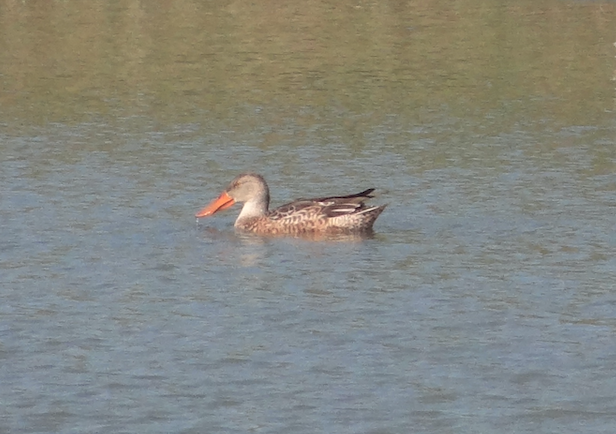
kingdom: Animalia
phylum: Chordata
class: Aves
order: Anseriformes
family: Anatidae
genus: Spatula
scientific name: Spatula clypeata
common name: Northern shoveler
